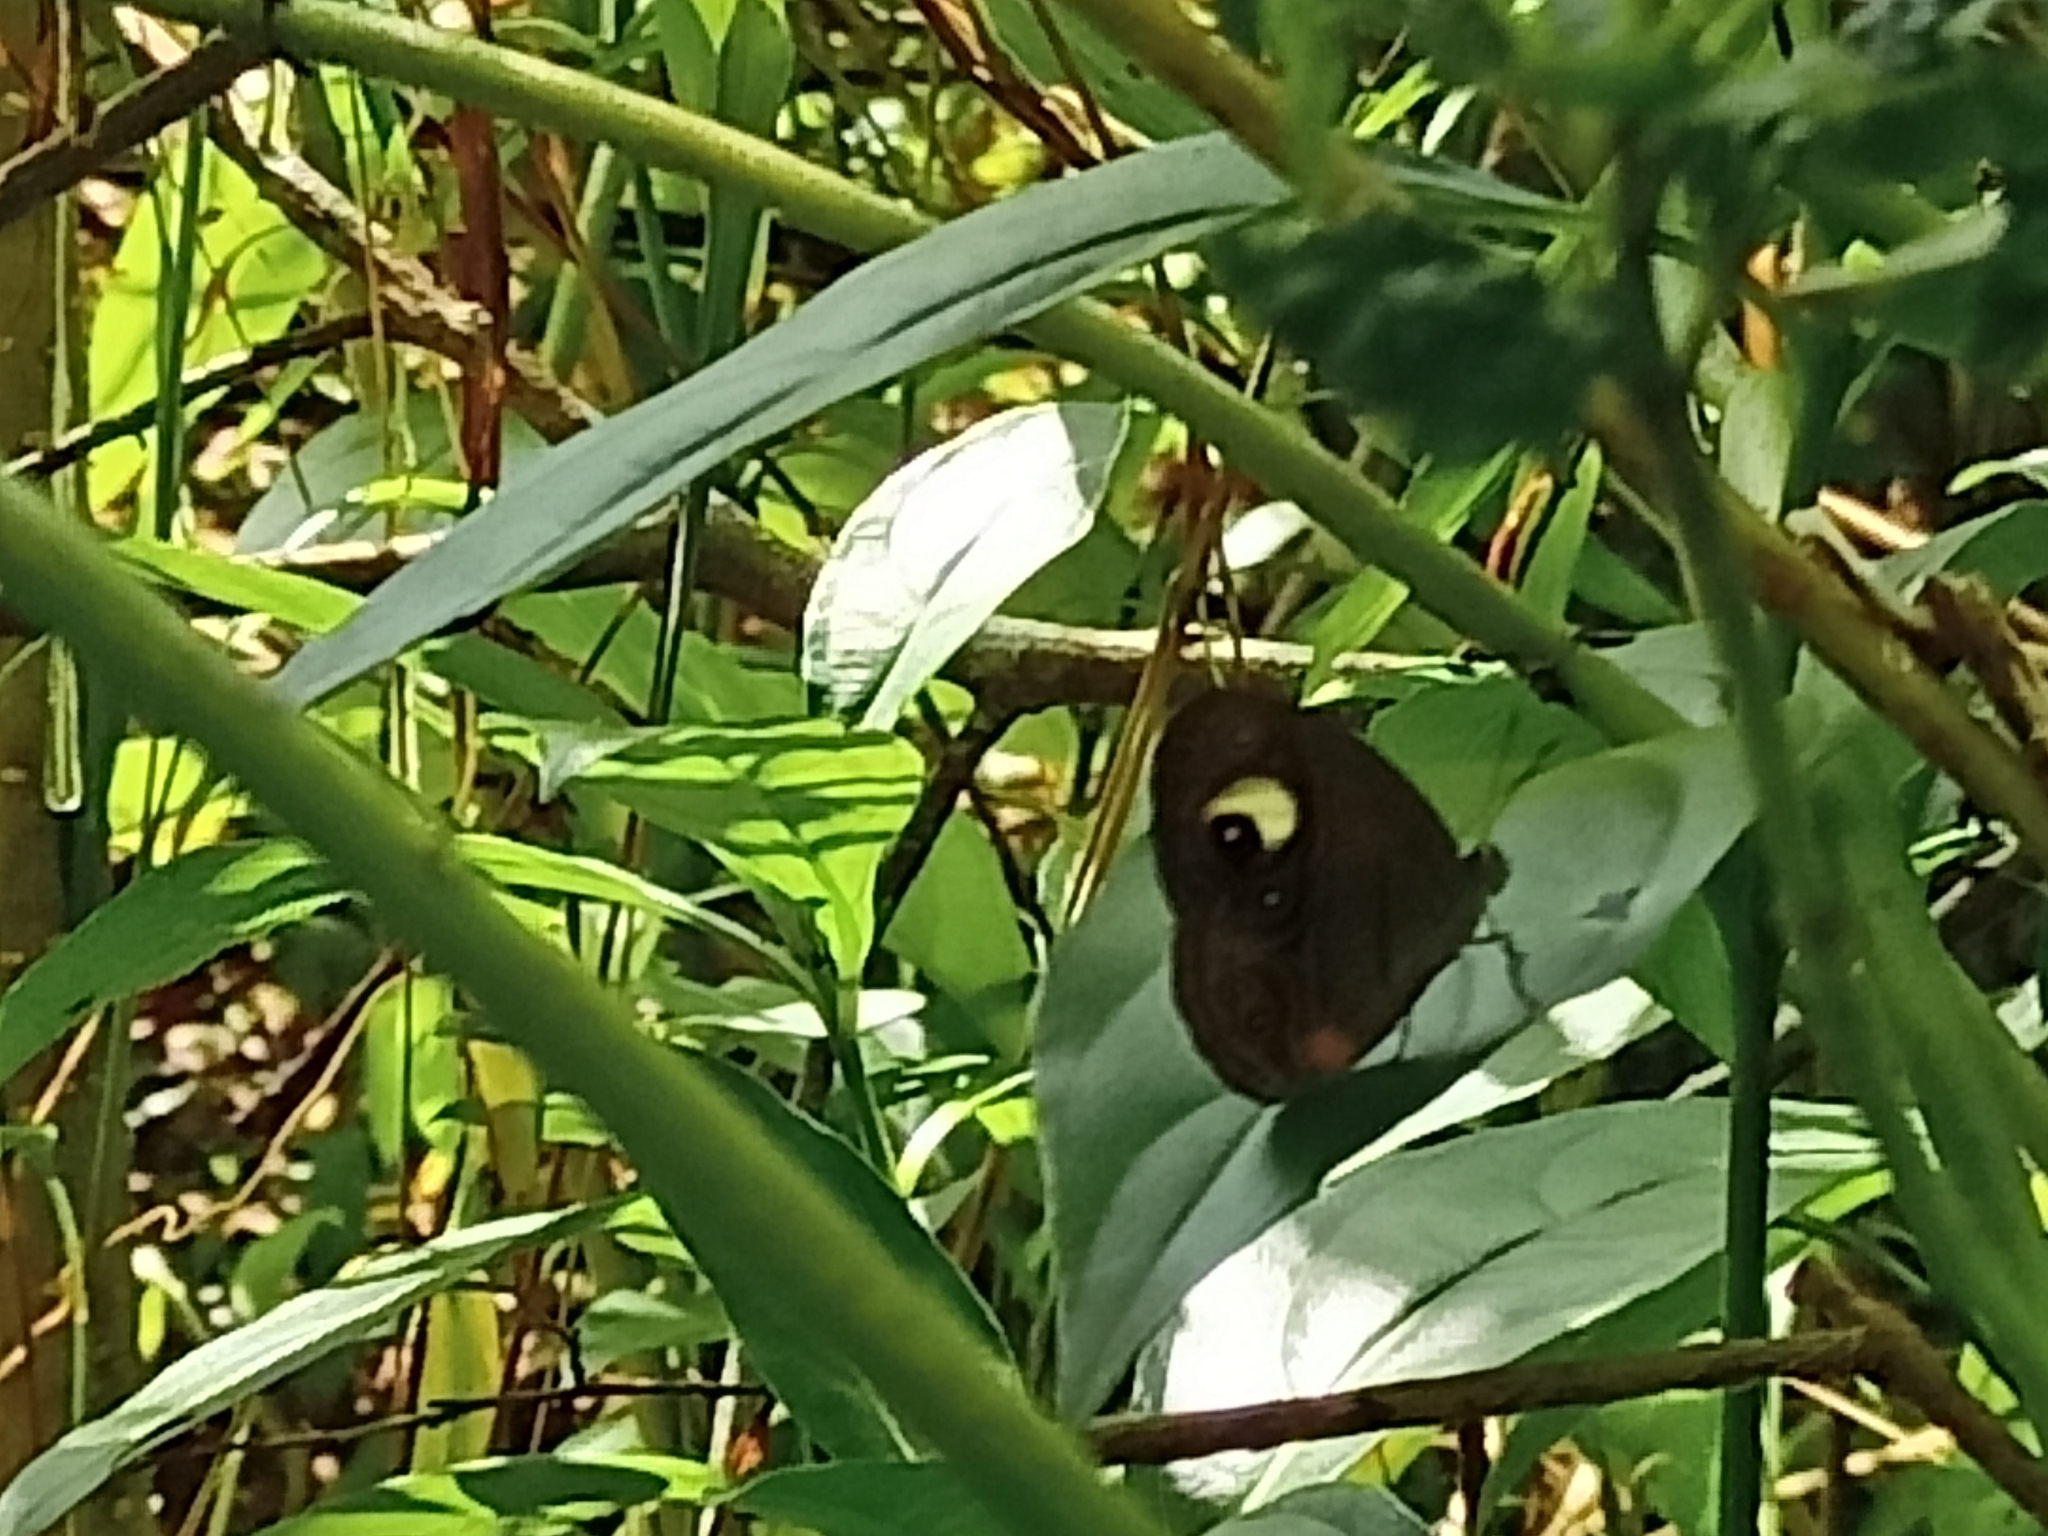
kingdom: Animalia
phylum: Arthropoda
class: Insecta
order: Lepidoptera
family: Nymphalidae
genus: Mycalesis
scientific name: Mycalesis patnia
